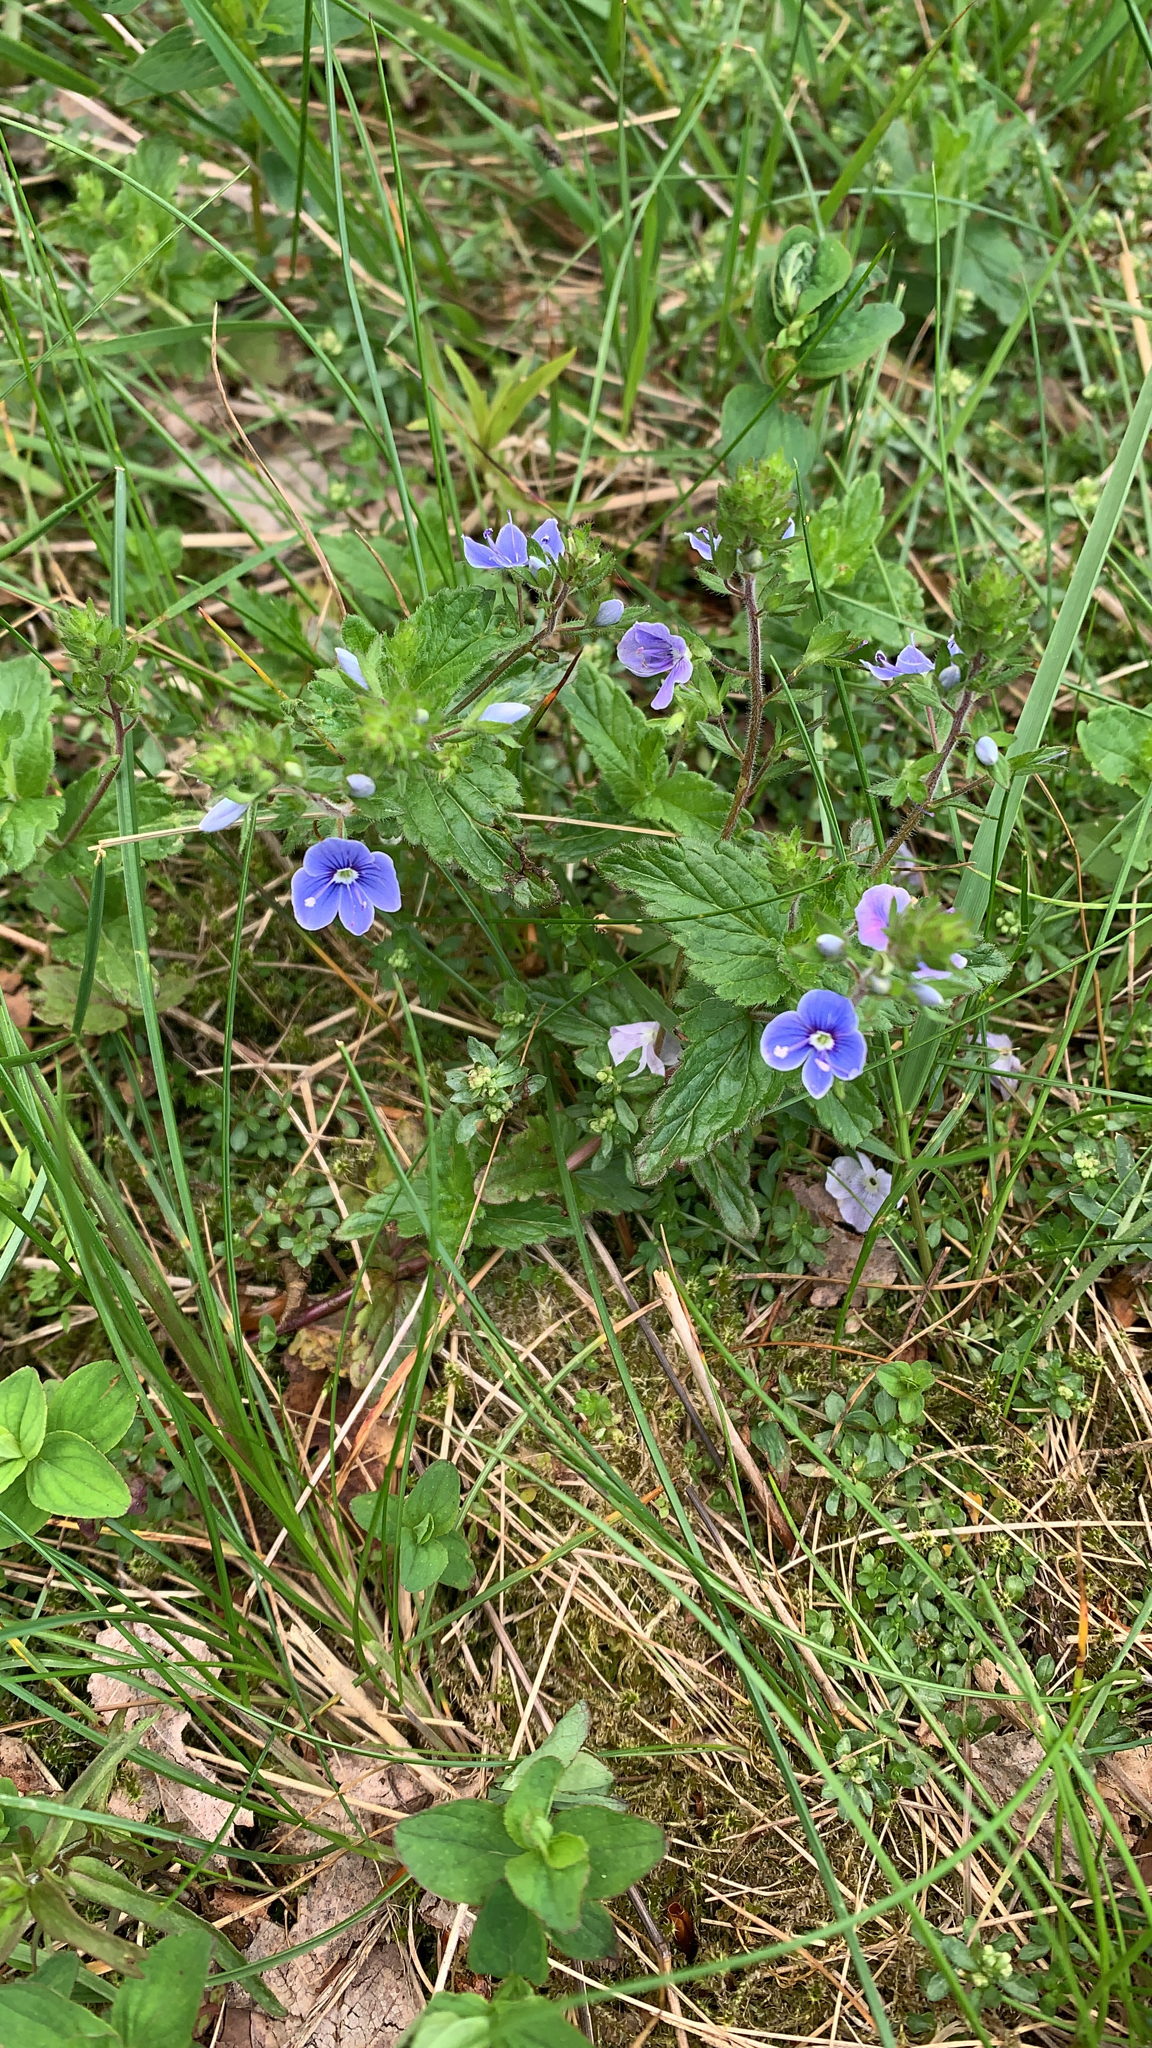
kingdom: Plantae
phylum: Tracheophyta
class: Magnoliopsida
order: Lamiales
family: Plantaginaceae
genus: Veronica
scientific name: Veronica chamaedrys
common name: Germander speedwell
